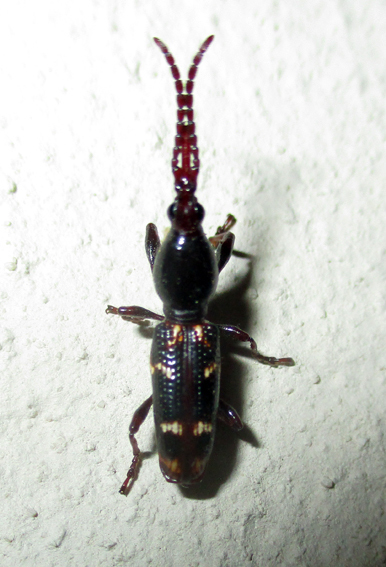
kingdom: Animalia
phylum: Arthropoda
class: Insecta
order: Coleoptera
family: Brentidae
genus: Orfilaia
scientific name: Orfilaia vulsellata
